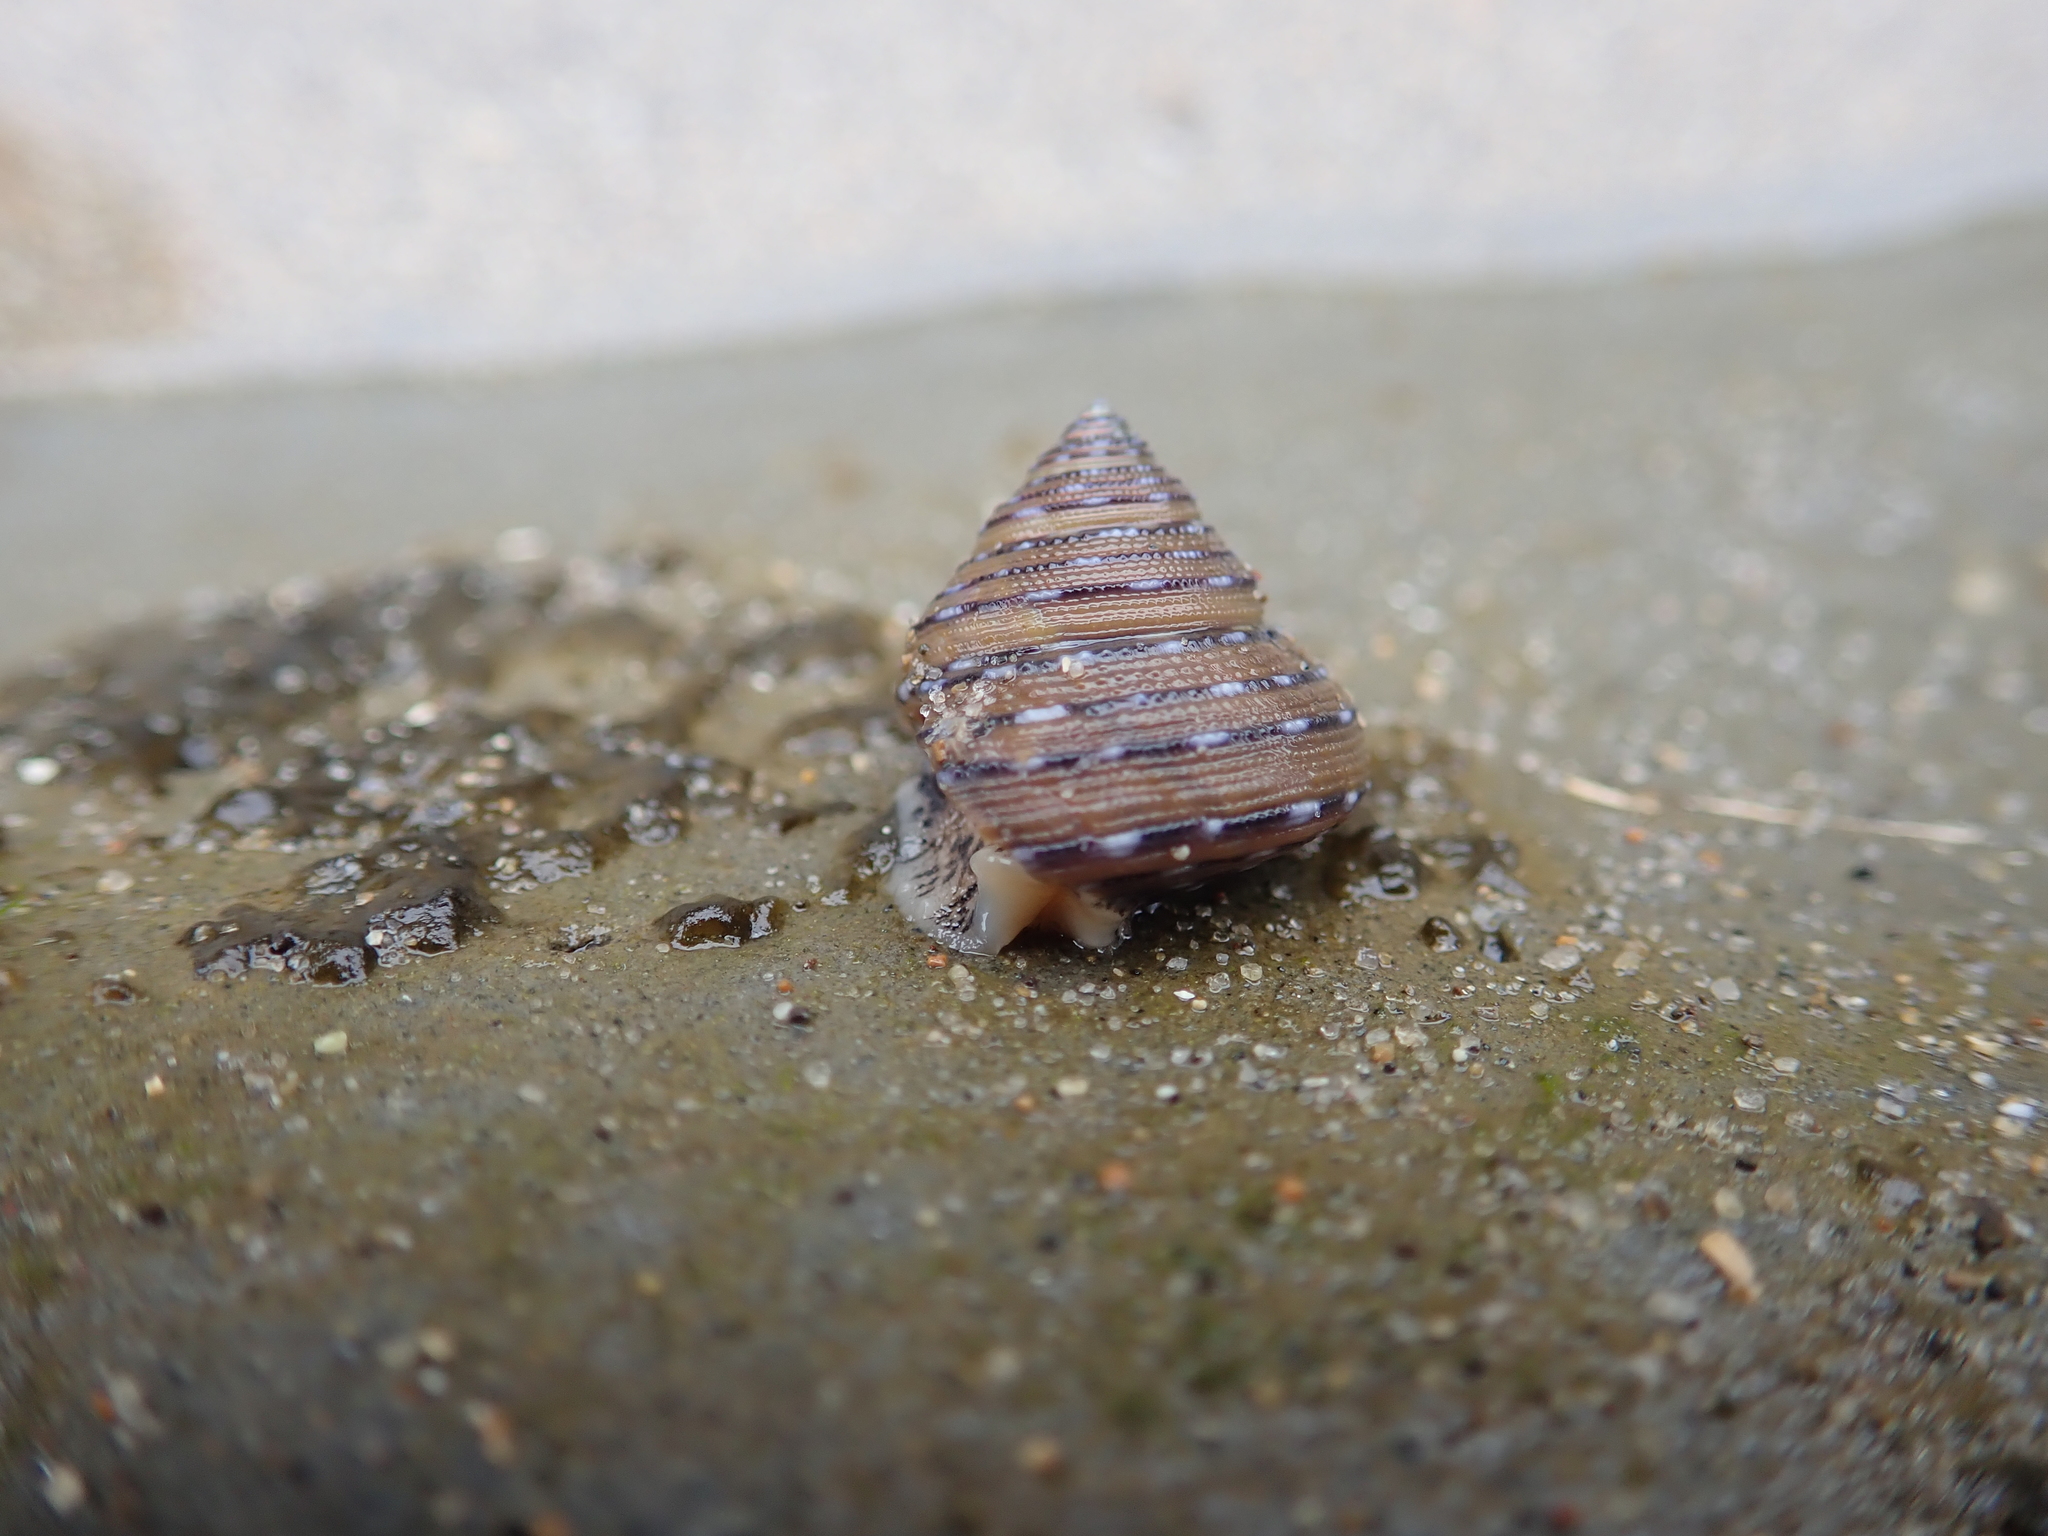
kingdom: Animalia
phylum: Mollusca
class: Gastropoda
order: Trochida
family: Calliostomatidae
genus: Calliostoma
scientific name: Calliostoma tricolor
